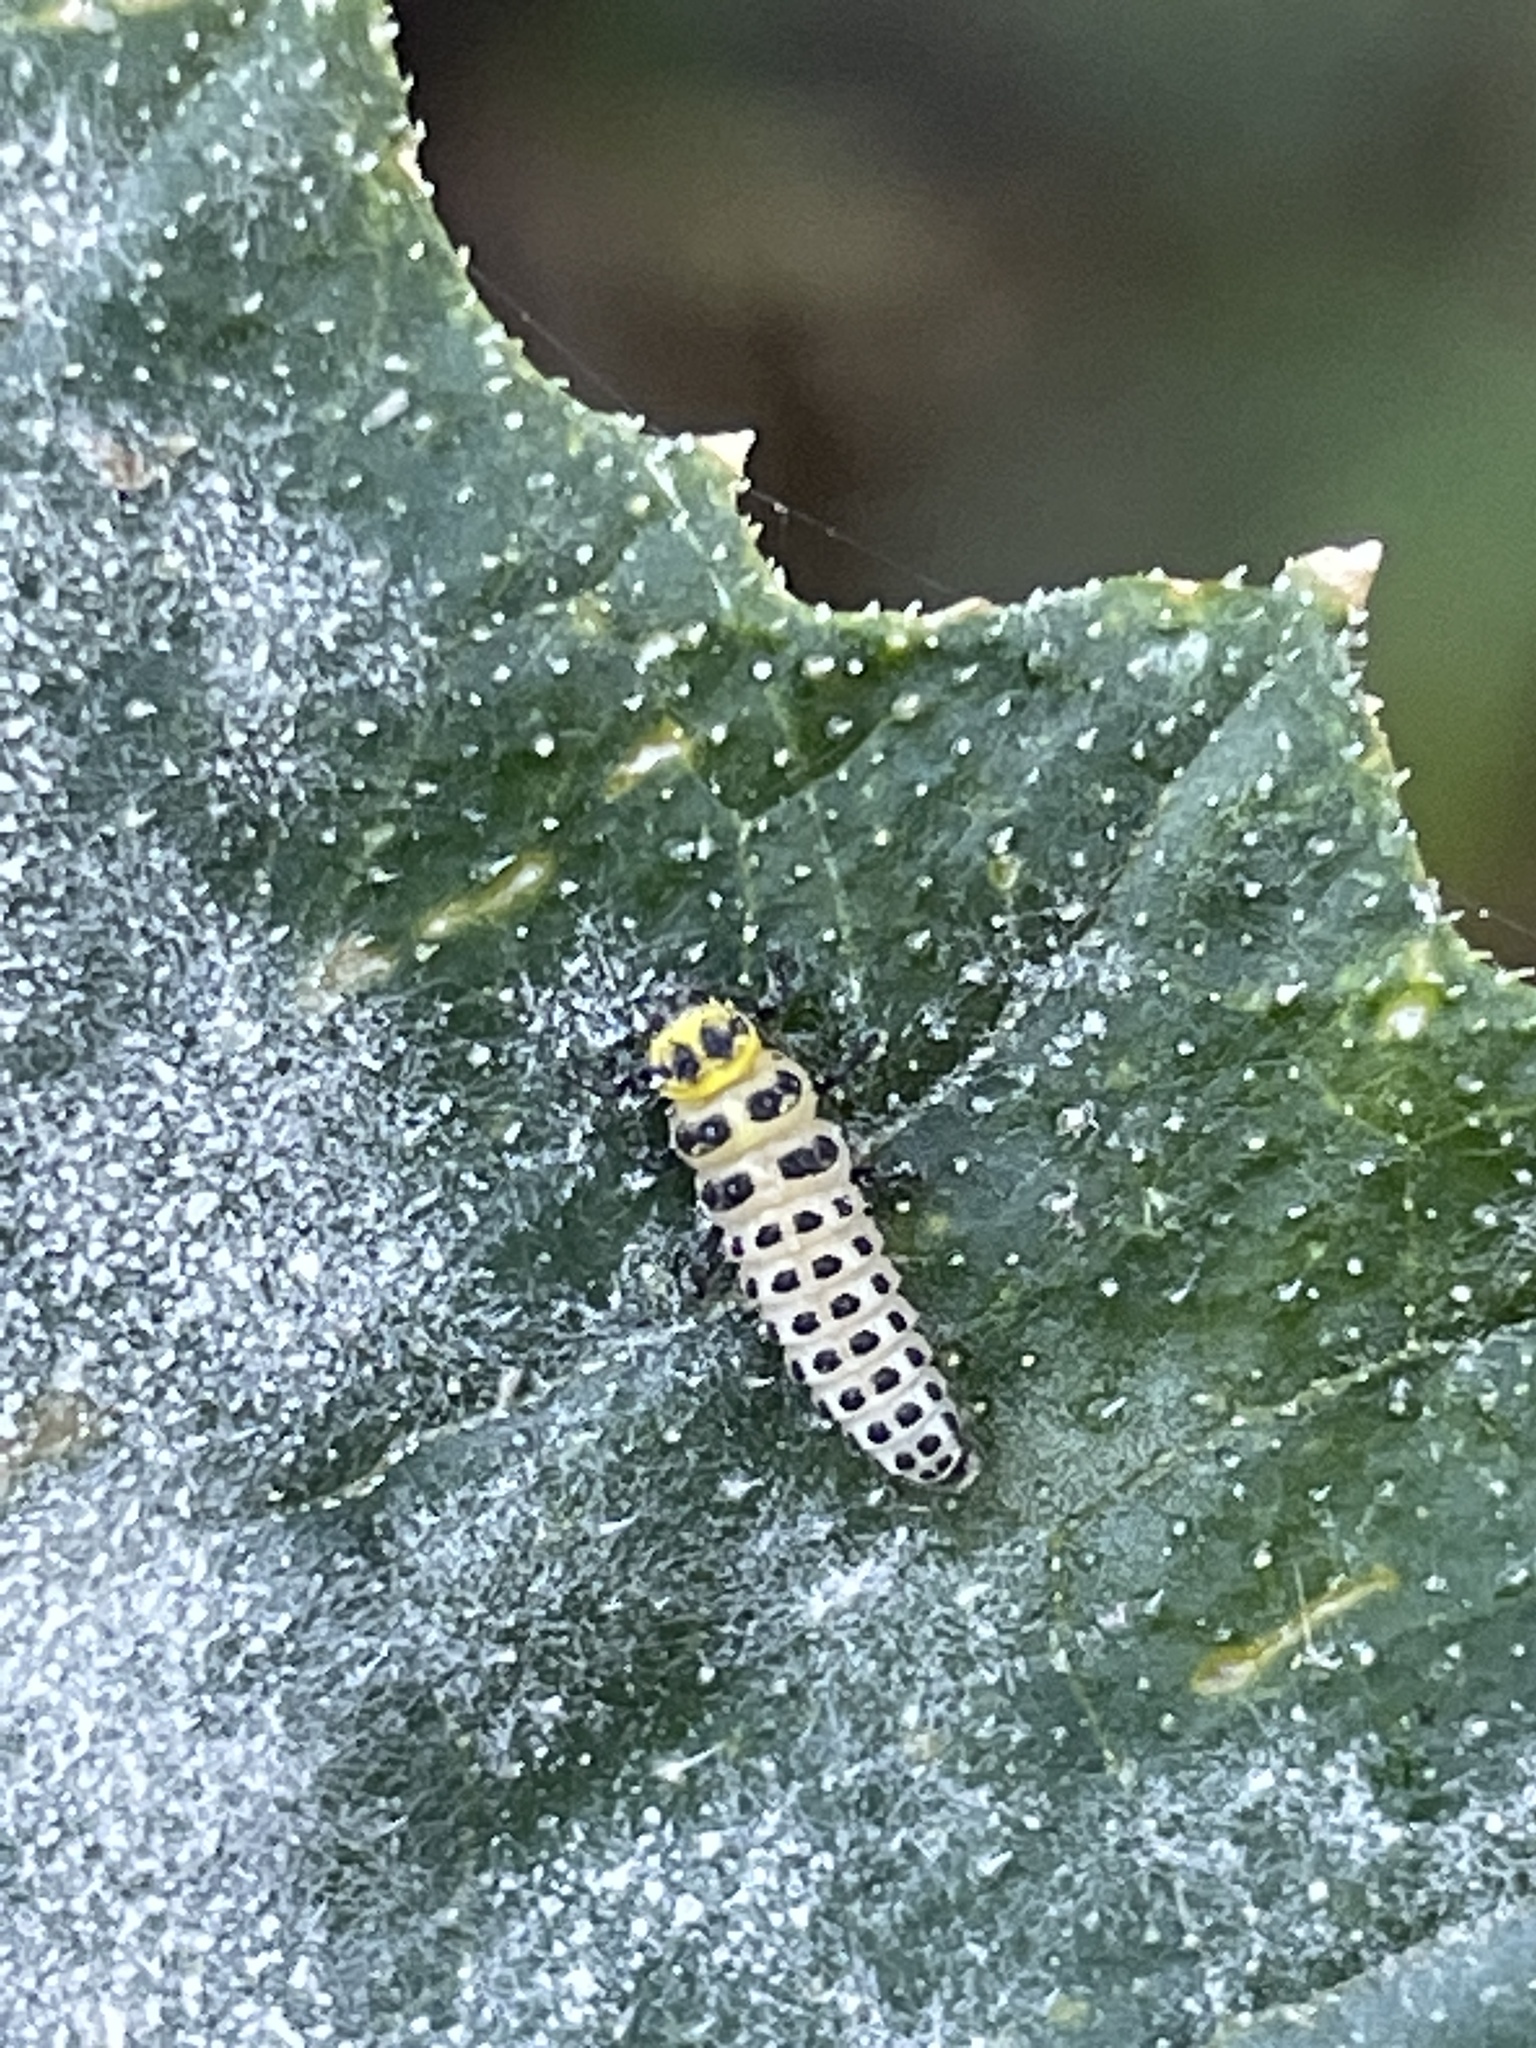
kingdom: Animalia
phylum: Arthropoda
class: Insecta
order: Coleoptera
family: Coccinellidae
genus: Illeis
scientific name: Illeis galbula
